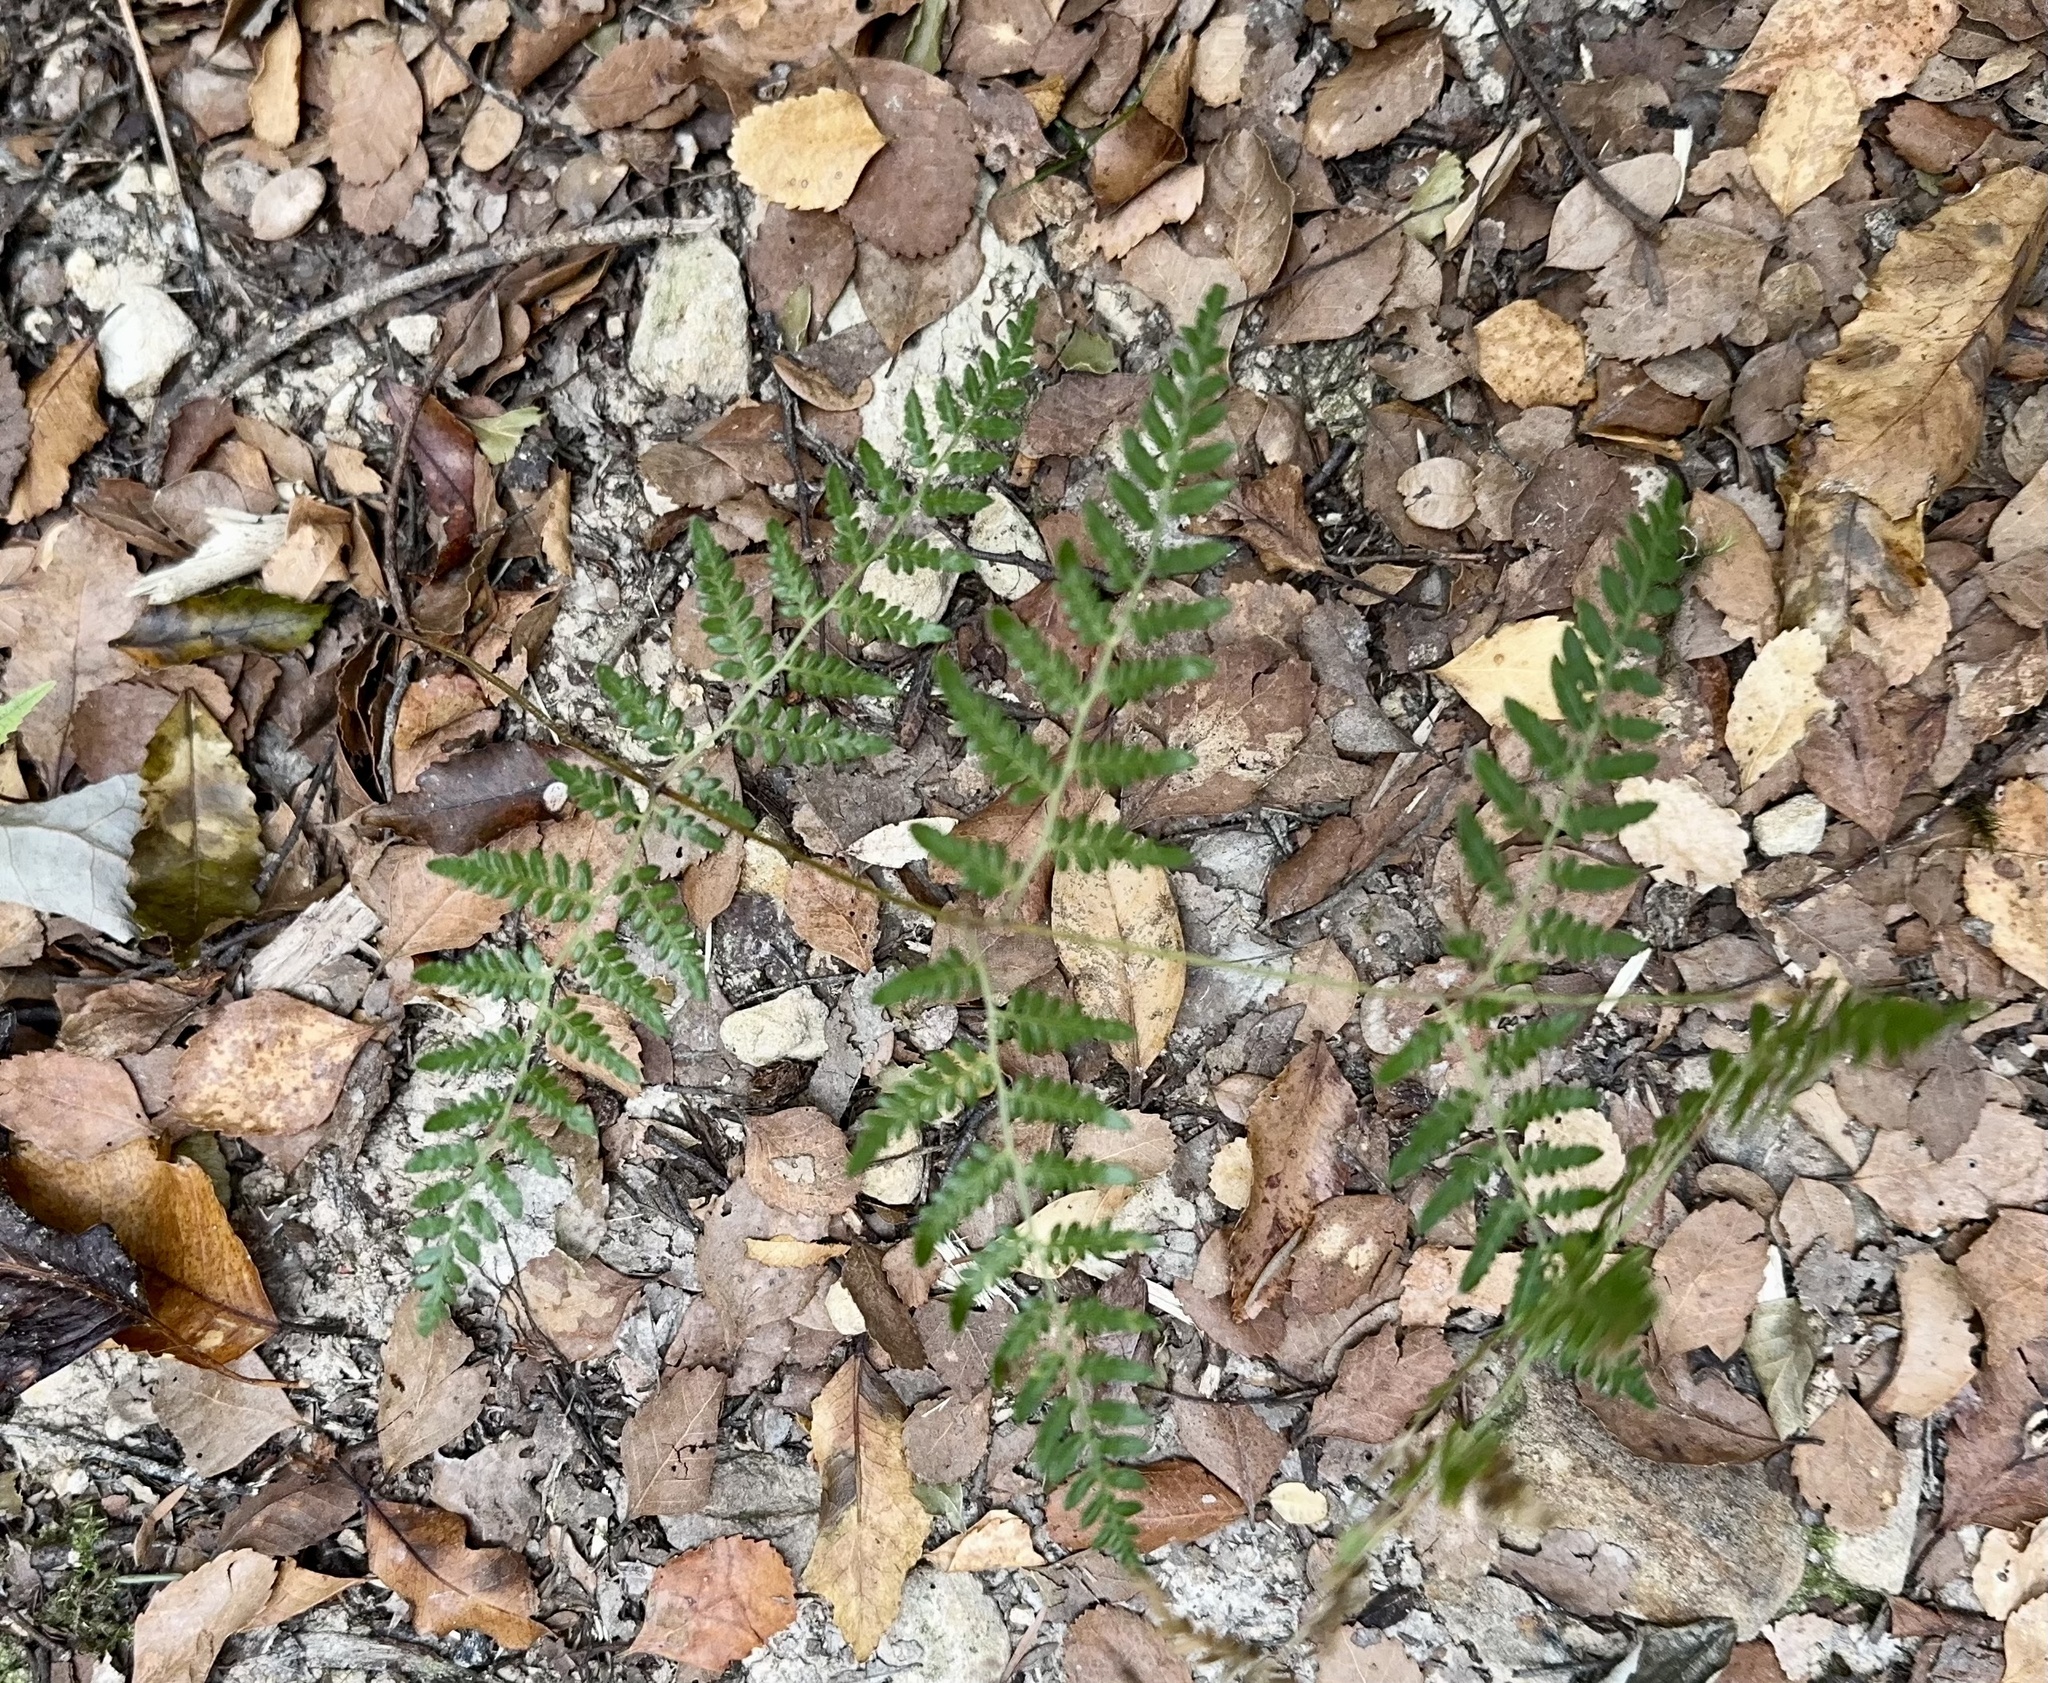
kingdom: Plantae
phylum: Tracheophyta
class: Polypodiopsida
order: Polypodiales
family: Dennstaedtiaceae
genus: Pteridium
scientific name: Pteridium esculentum
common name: Bracken fern
